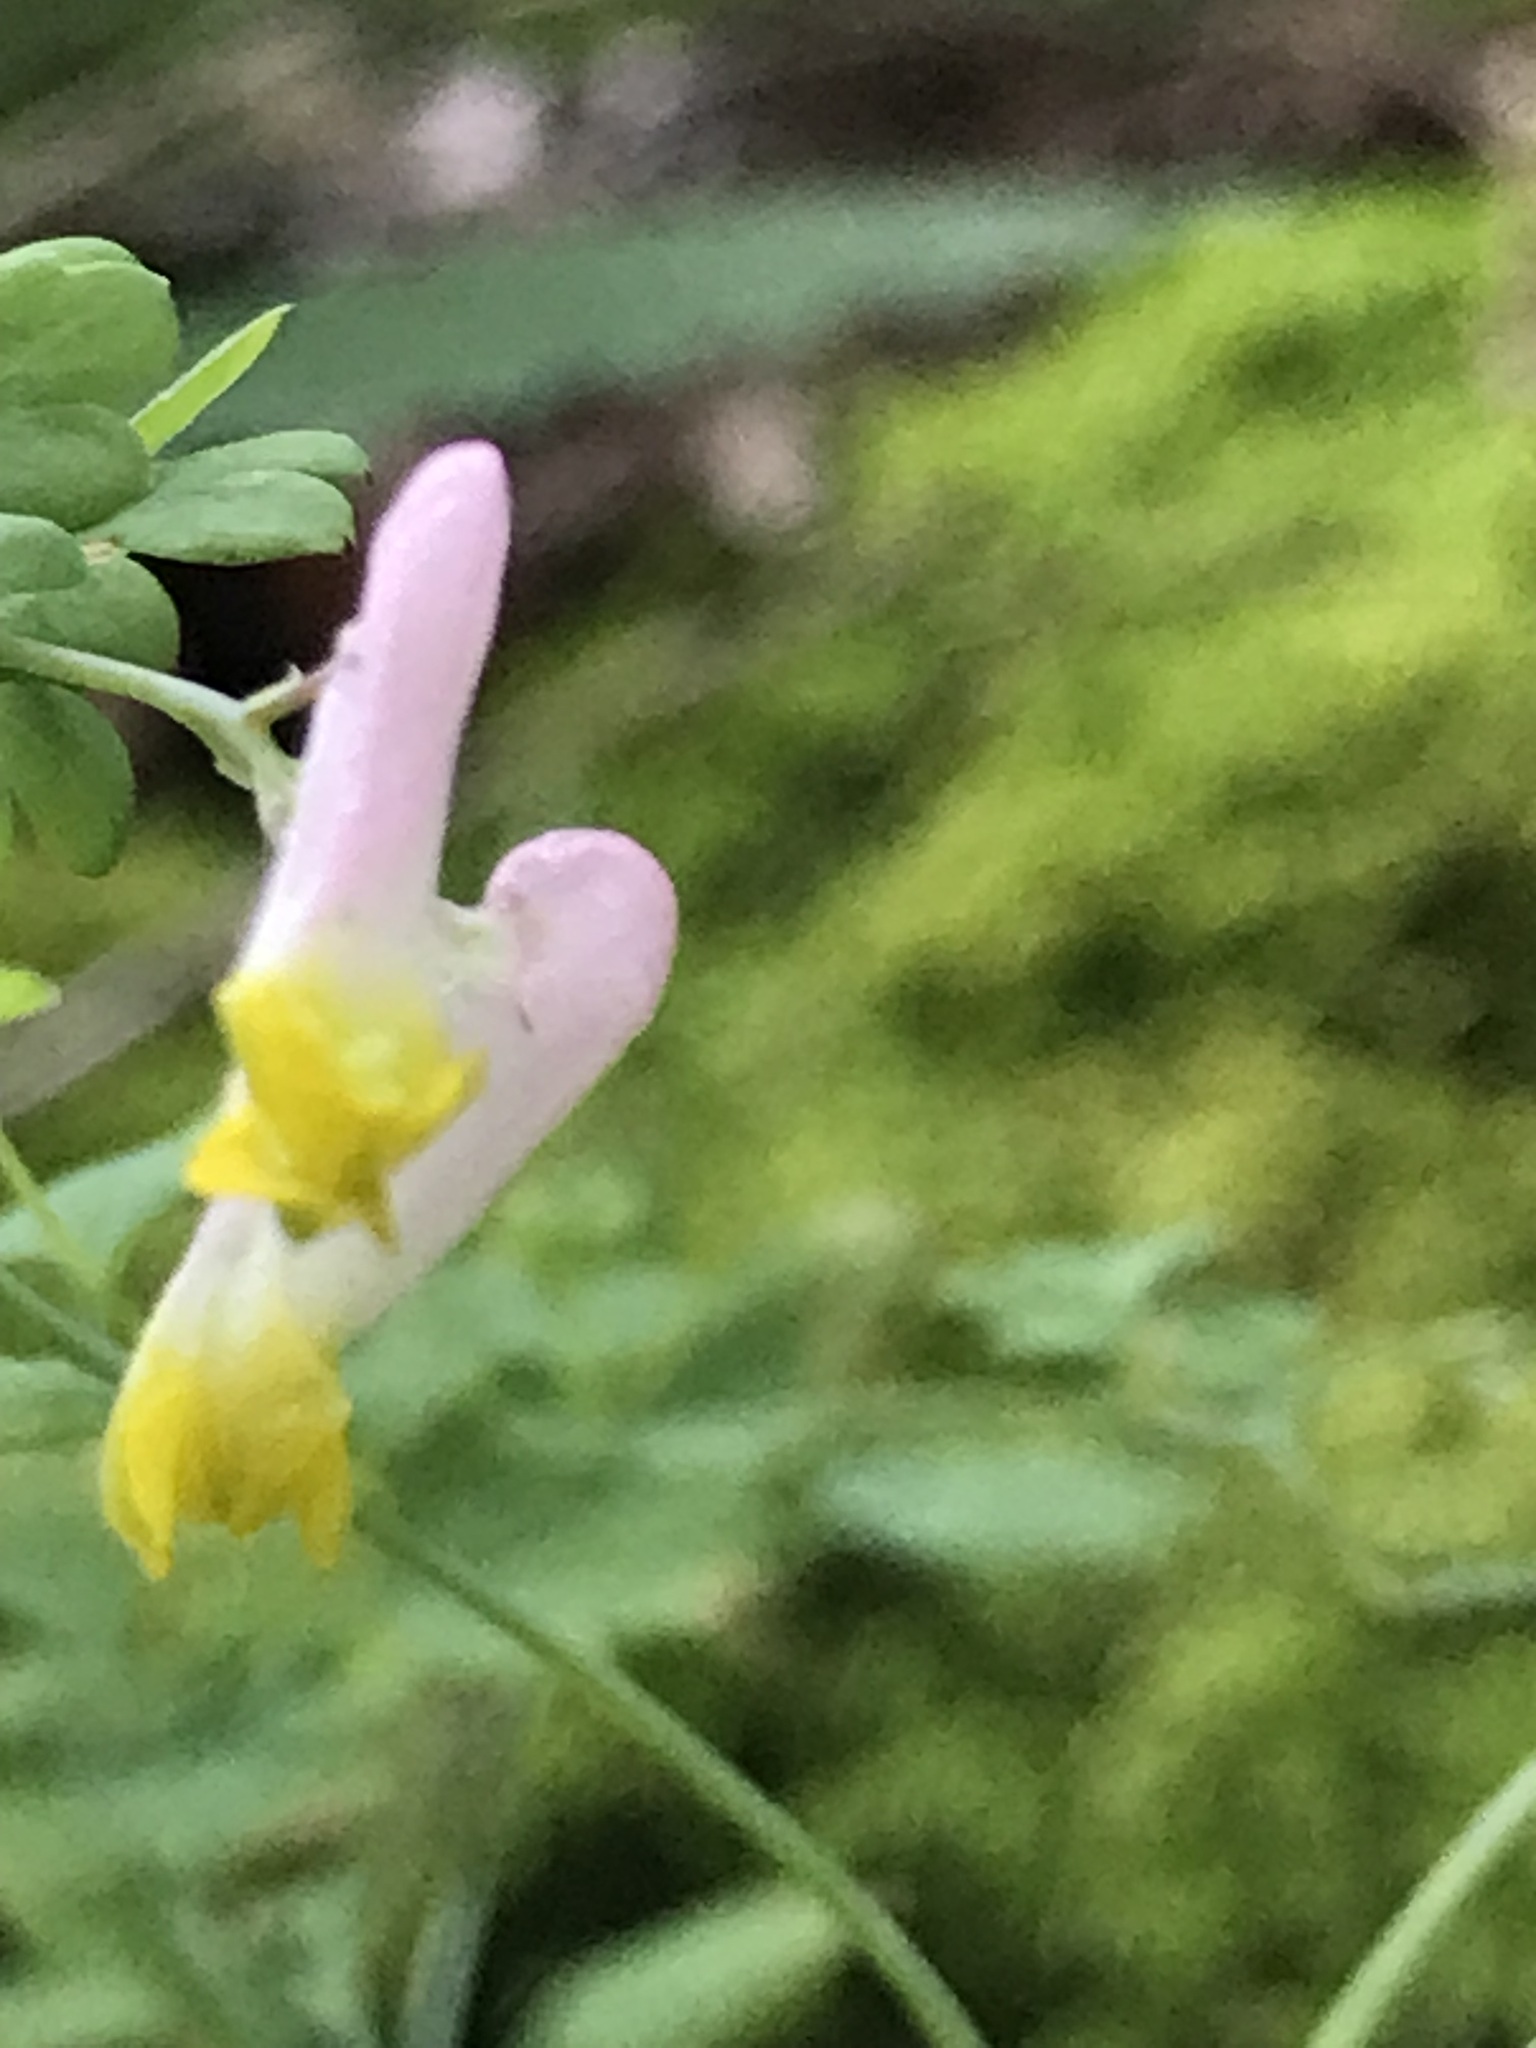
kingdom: Plantae
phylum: Tracheophyta
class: Magnoliopsida
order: Ranunculales
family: Papaveraceae
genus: Capnoides
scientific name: Capnoides sempervirens
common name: Rock harlequin
